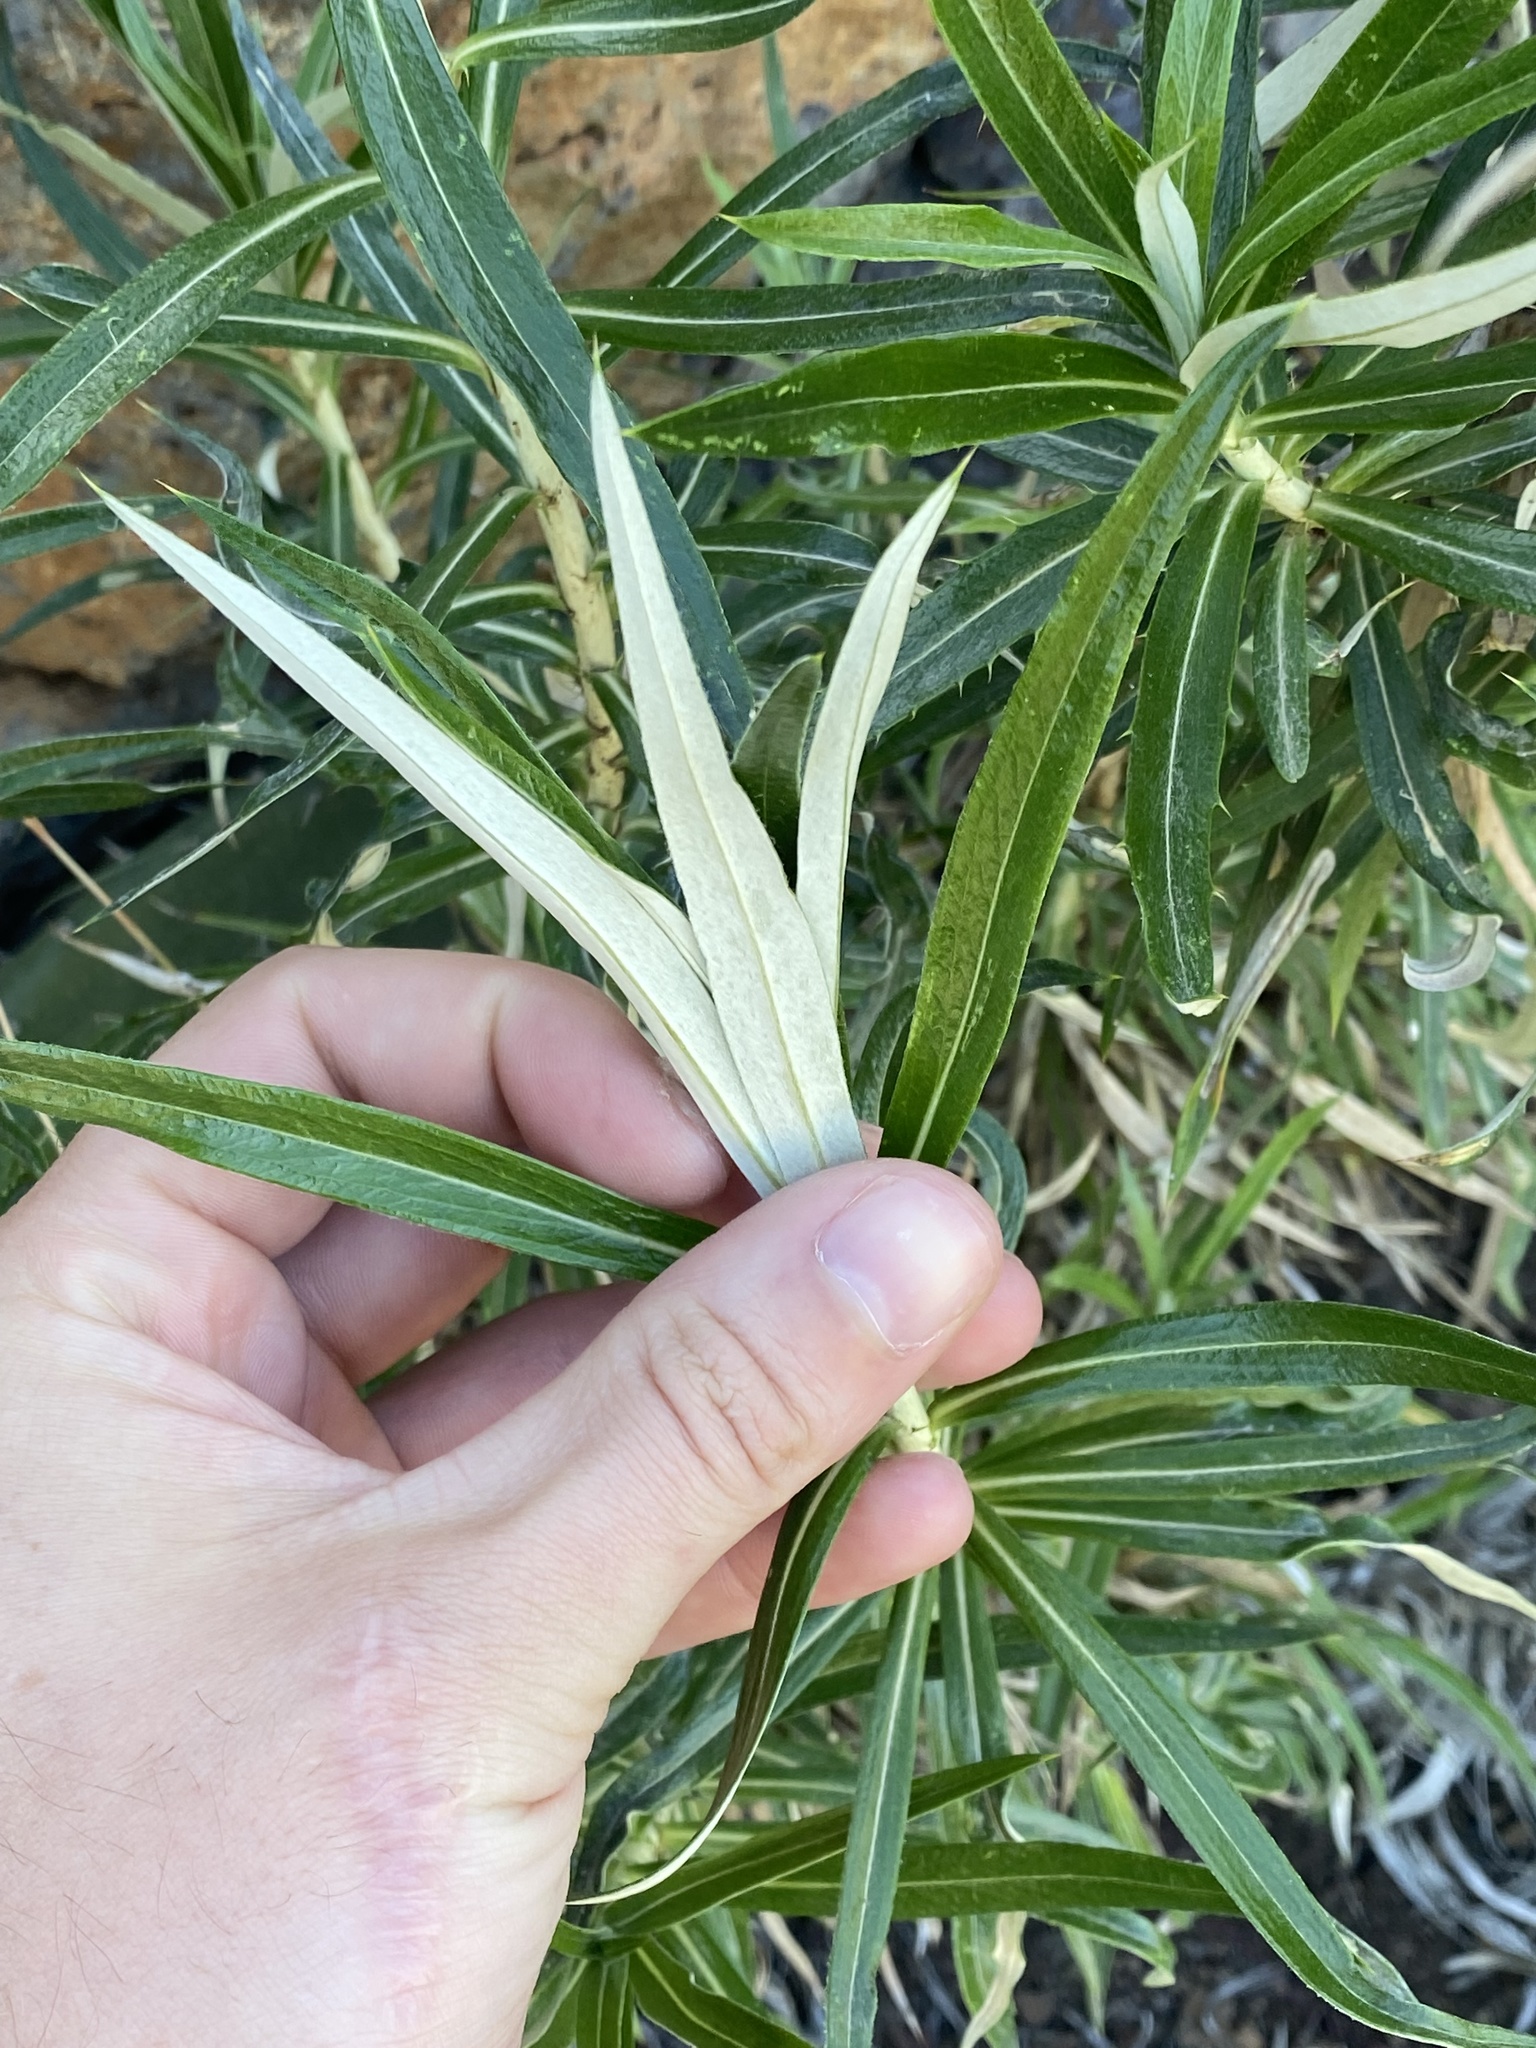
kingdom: Plantae
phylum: Tracheophyta
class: Magnoliopsida
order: Asterales
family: Asteraceae
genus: Carlina
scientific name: Carlina salicifolia
